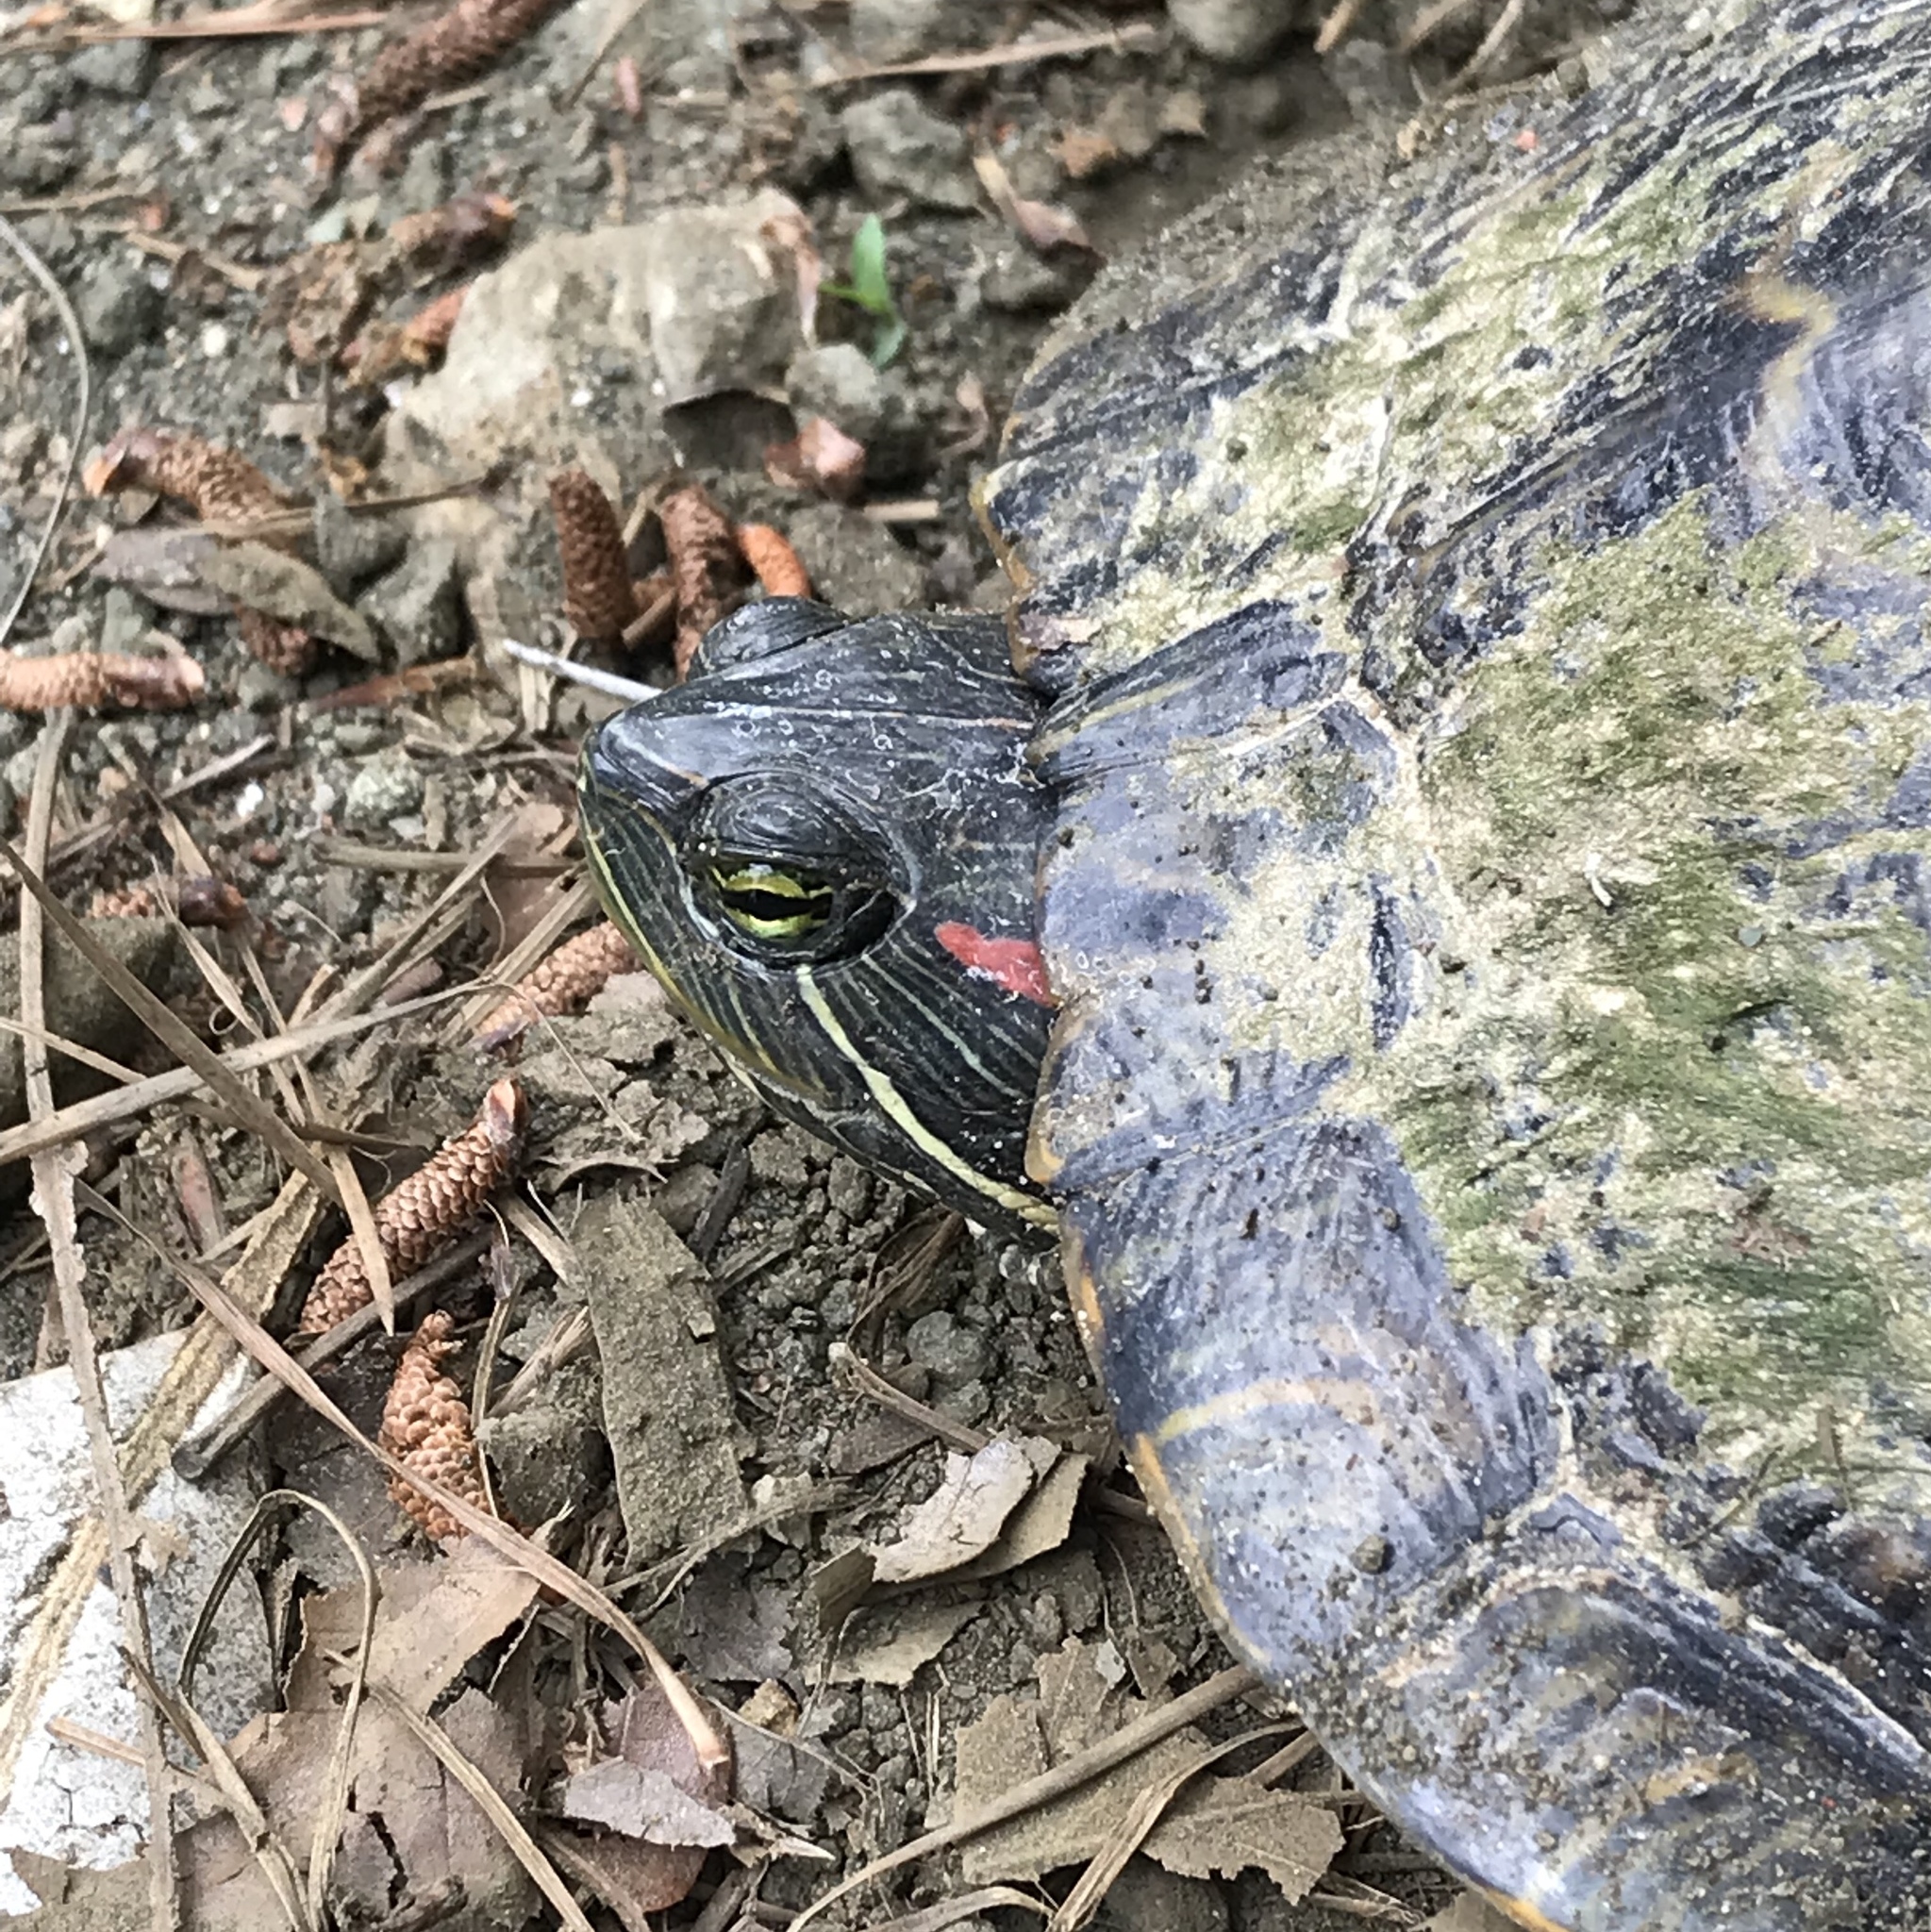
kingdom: Animalia
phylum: Chordata
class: Testudines
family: Emydidae
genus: Trachemys
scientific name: Trachemys scripta
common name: Slider
